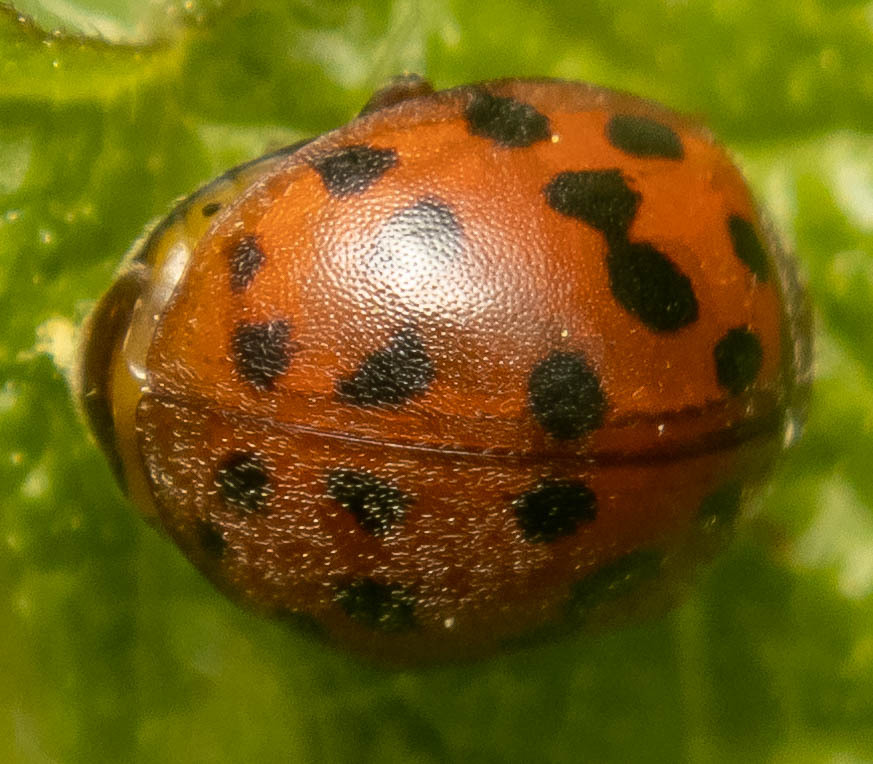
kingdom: Animalia
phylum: Arthropoda
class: Insecta
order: Coleoptera
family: Coccinellidae
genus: Subcoccinella
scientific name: Subcoccinella vigintiquatuorpunctata
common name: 24-spot ladybird
